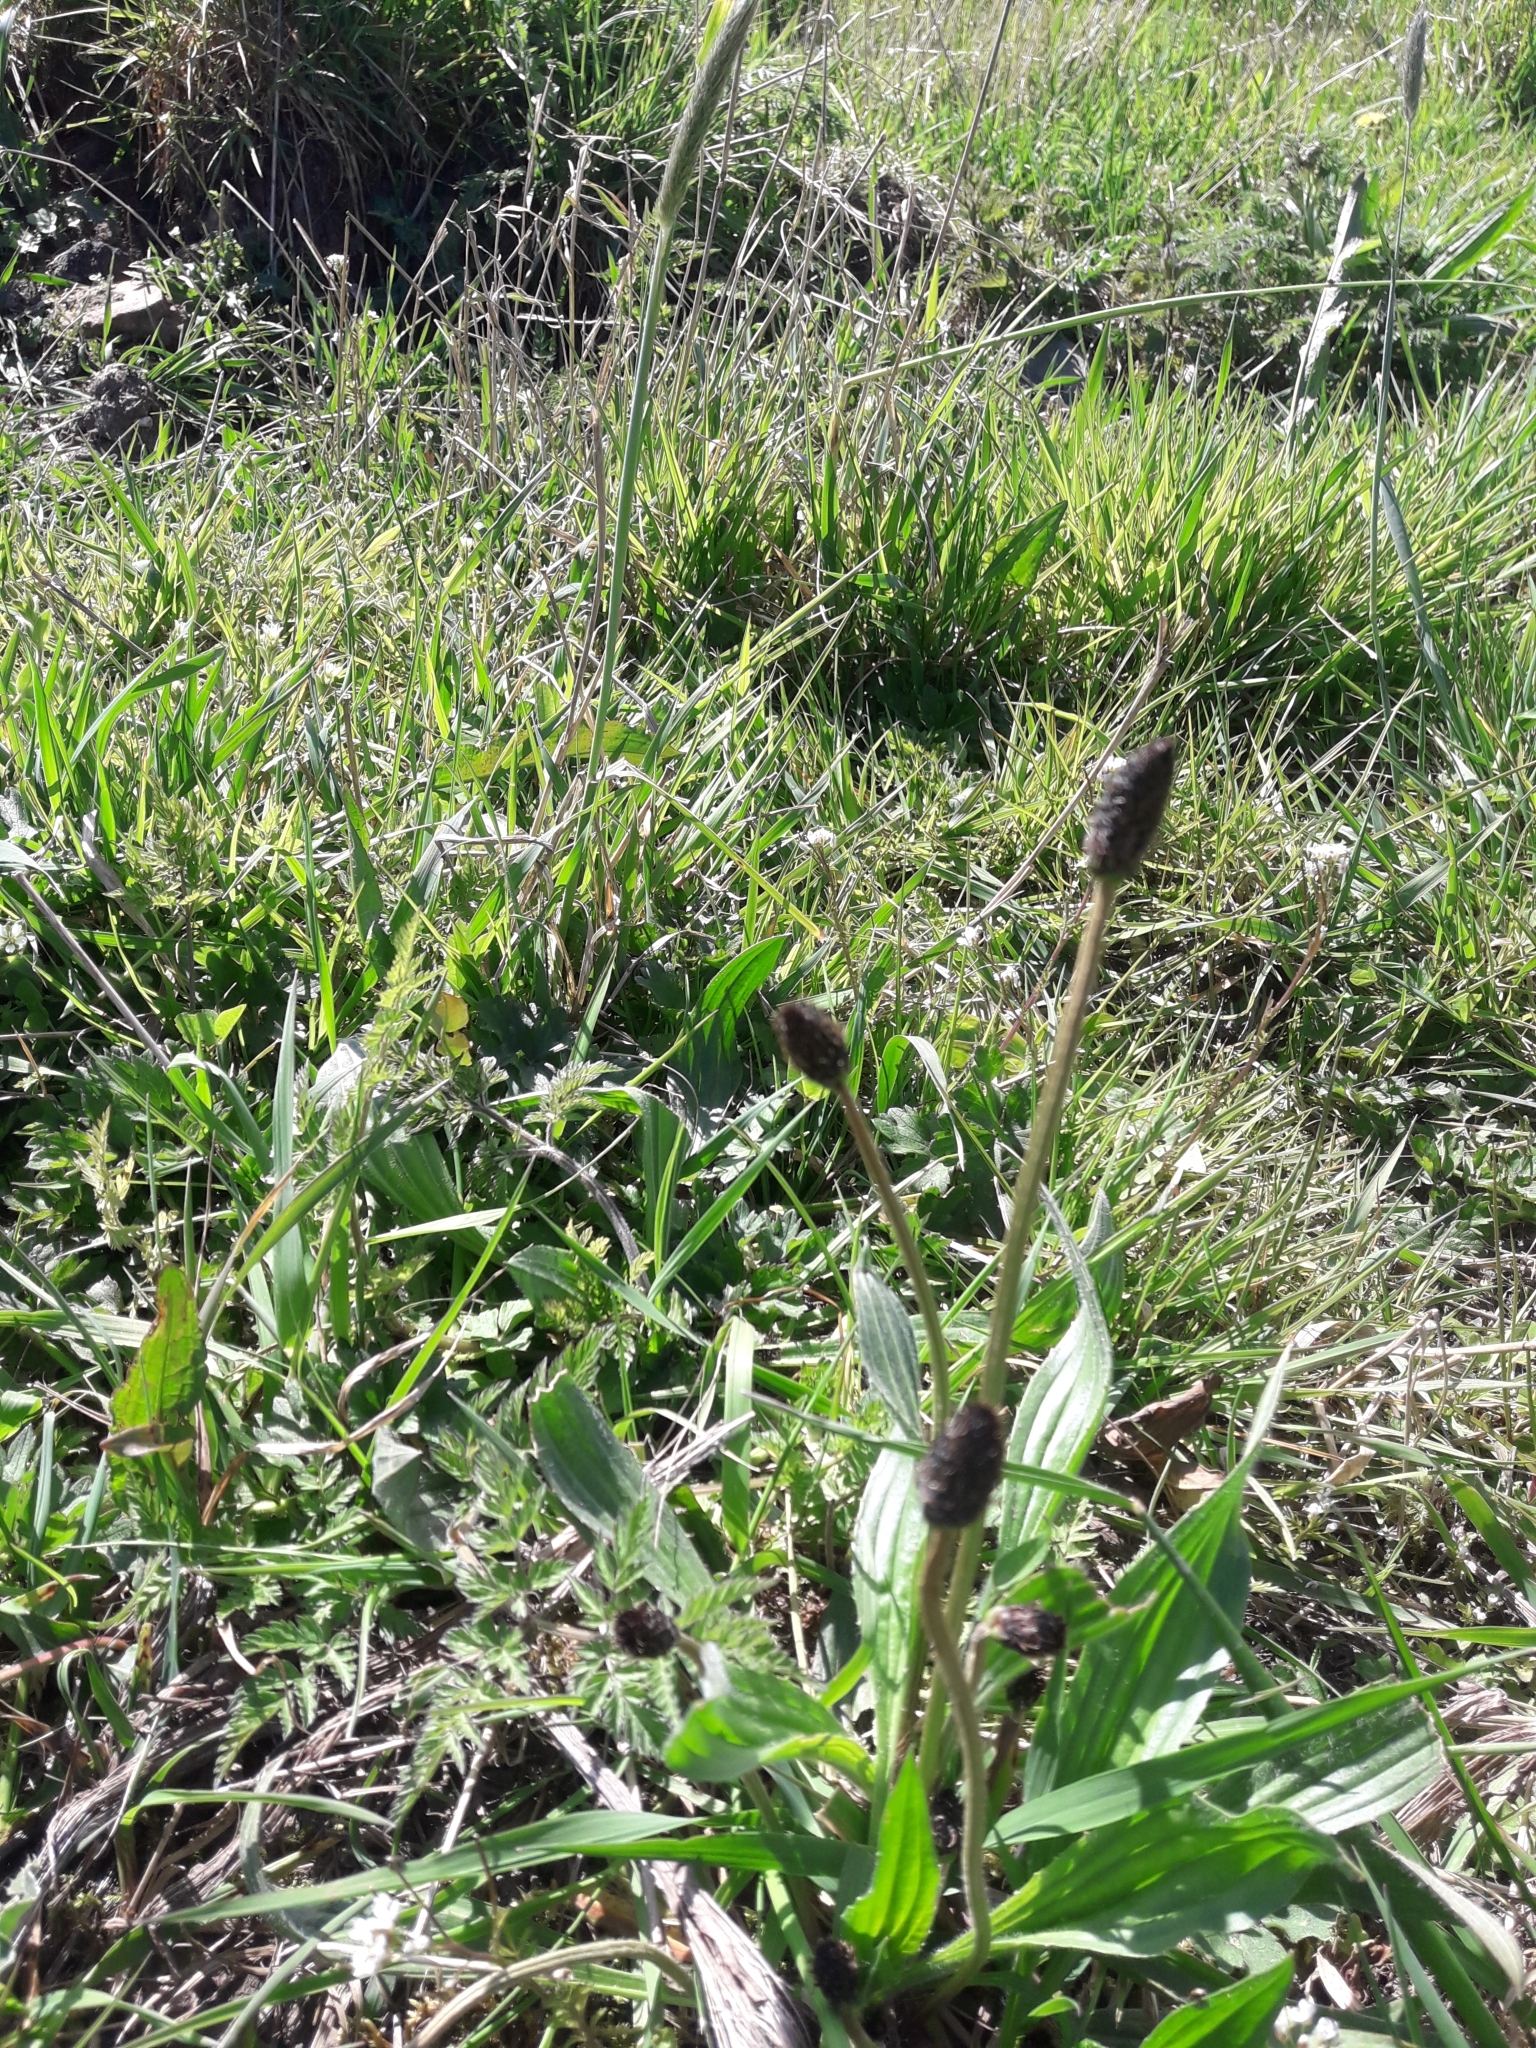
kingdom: Plantae
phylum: Tracheophyta
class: Magnoliopsida
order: Lamiales
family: Plantaginaceae
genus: Plantago
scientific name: Plantago lanceolata
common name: Ribwort plantain
